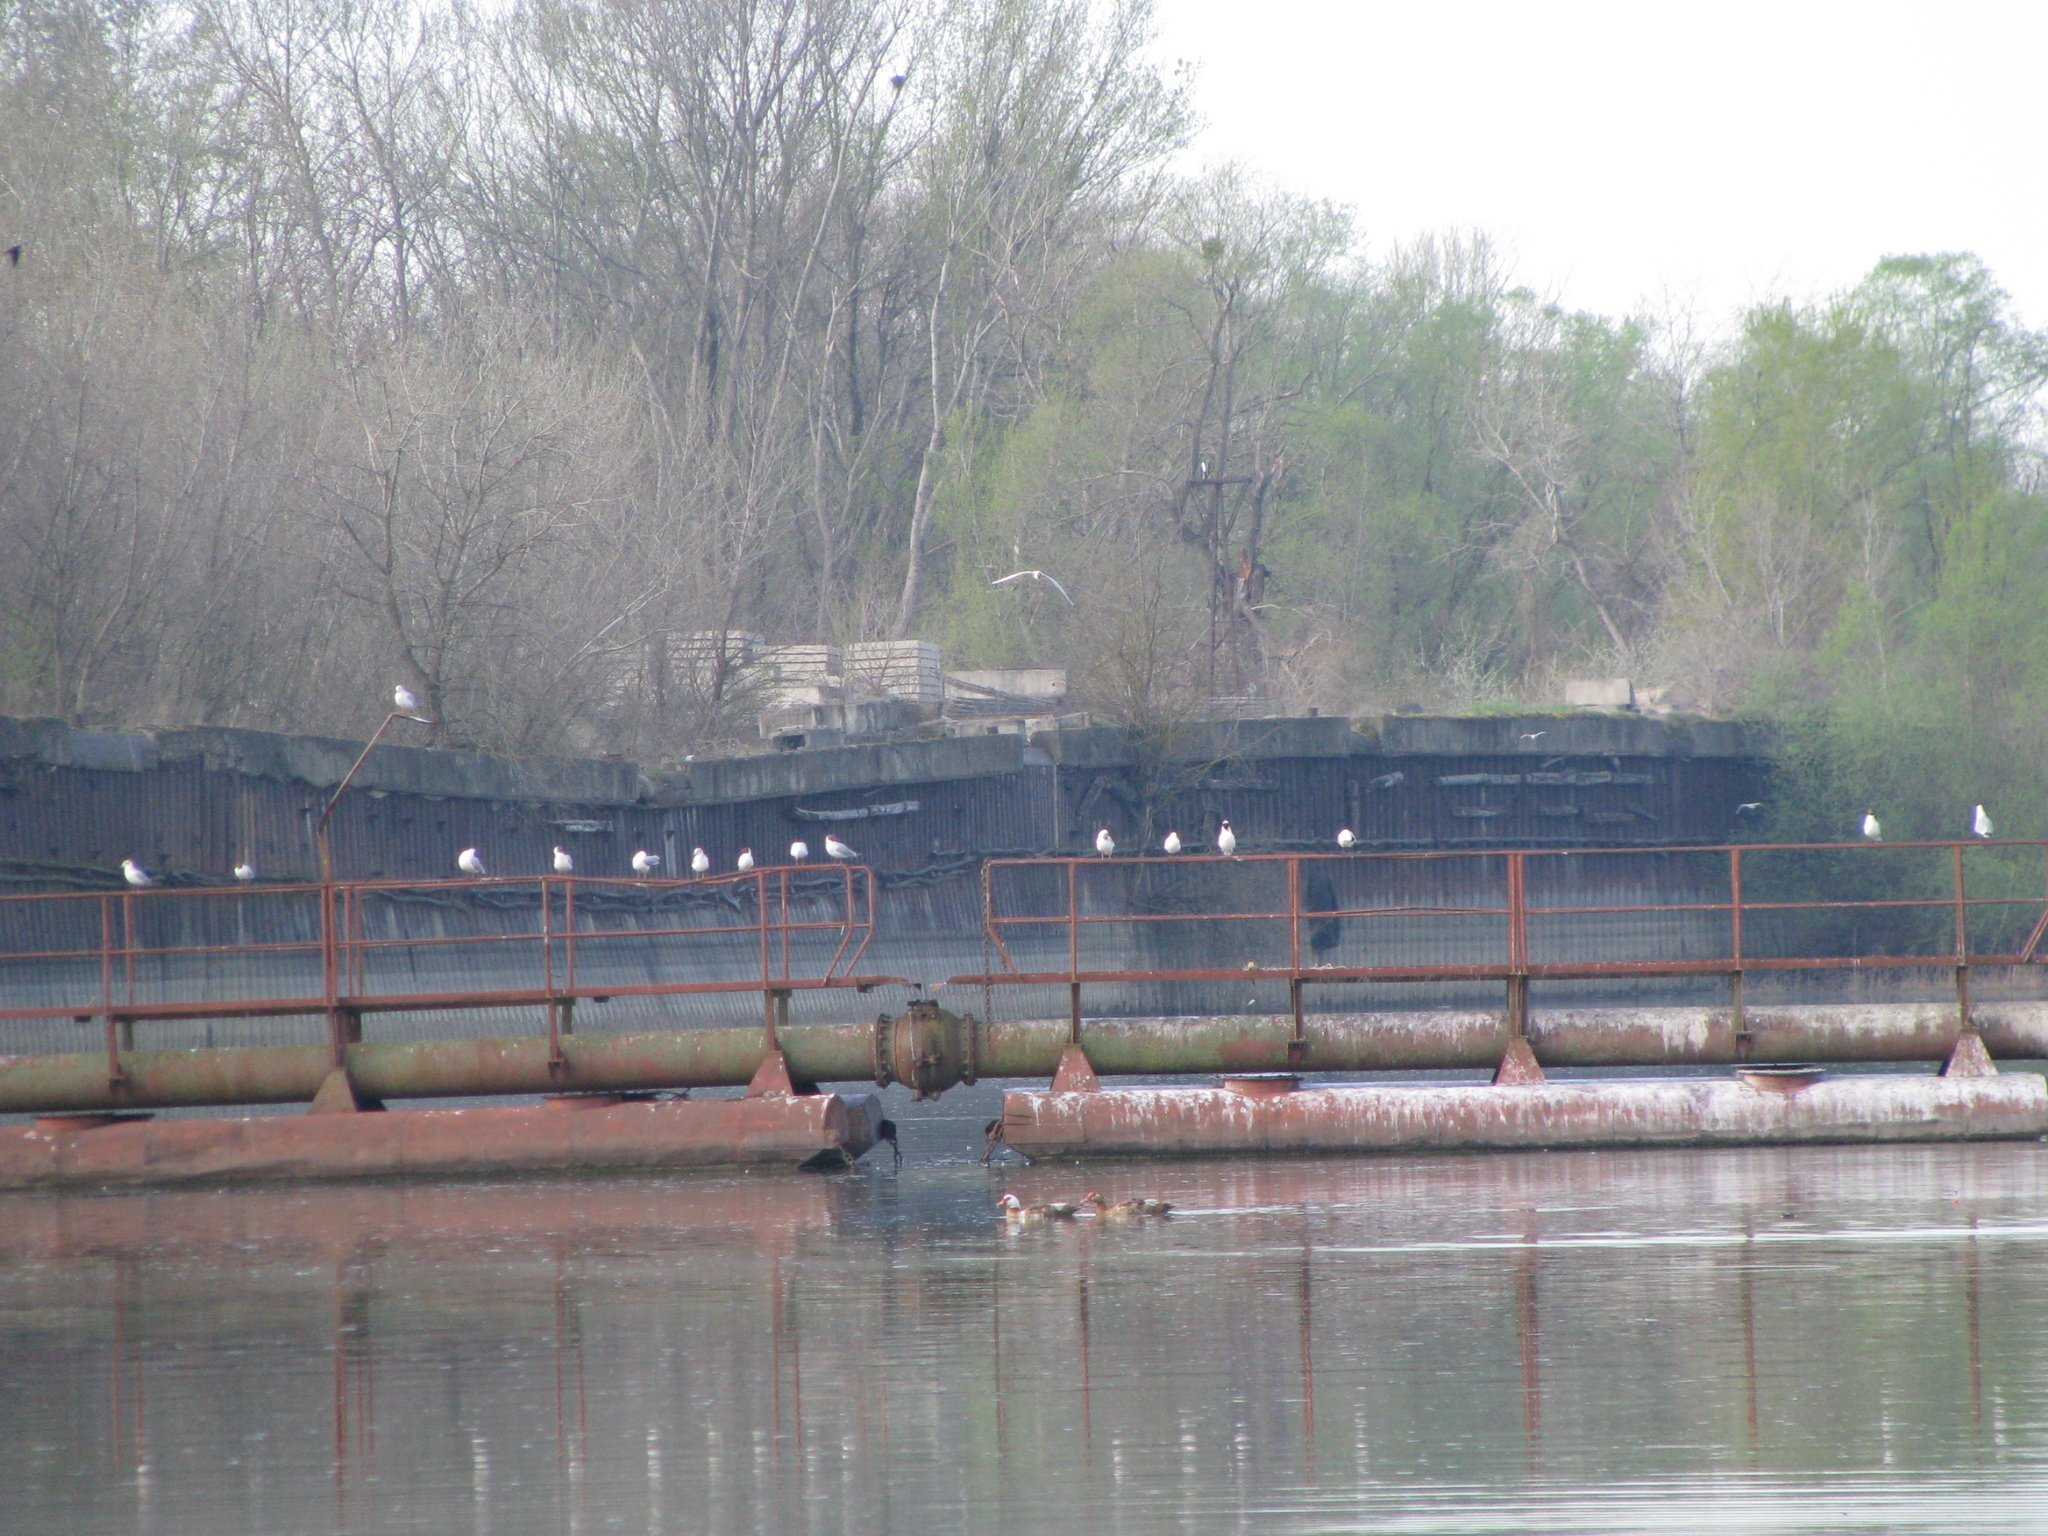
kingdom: Animalia
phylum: Chordata
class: Aves
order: Anseriformes
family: Anatidae
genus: Cairina
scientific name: Cairina moschata
